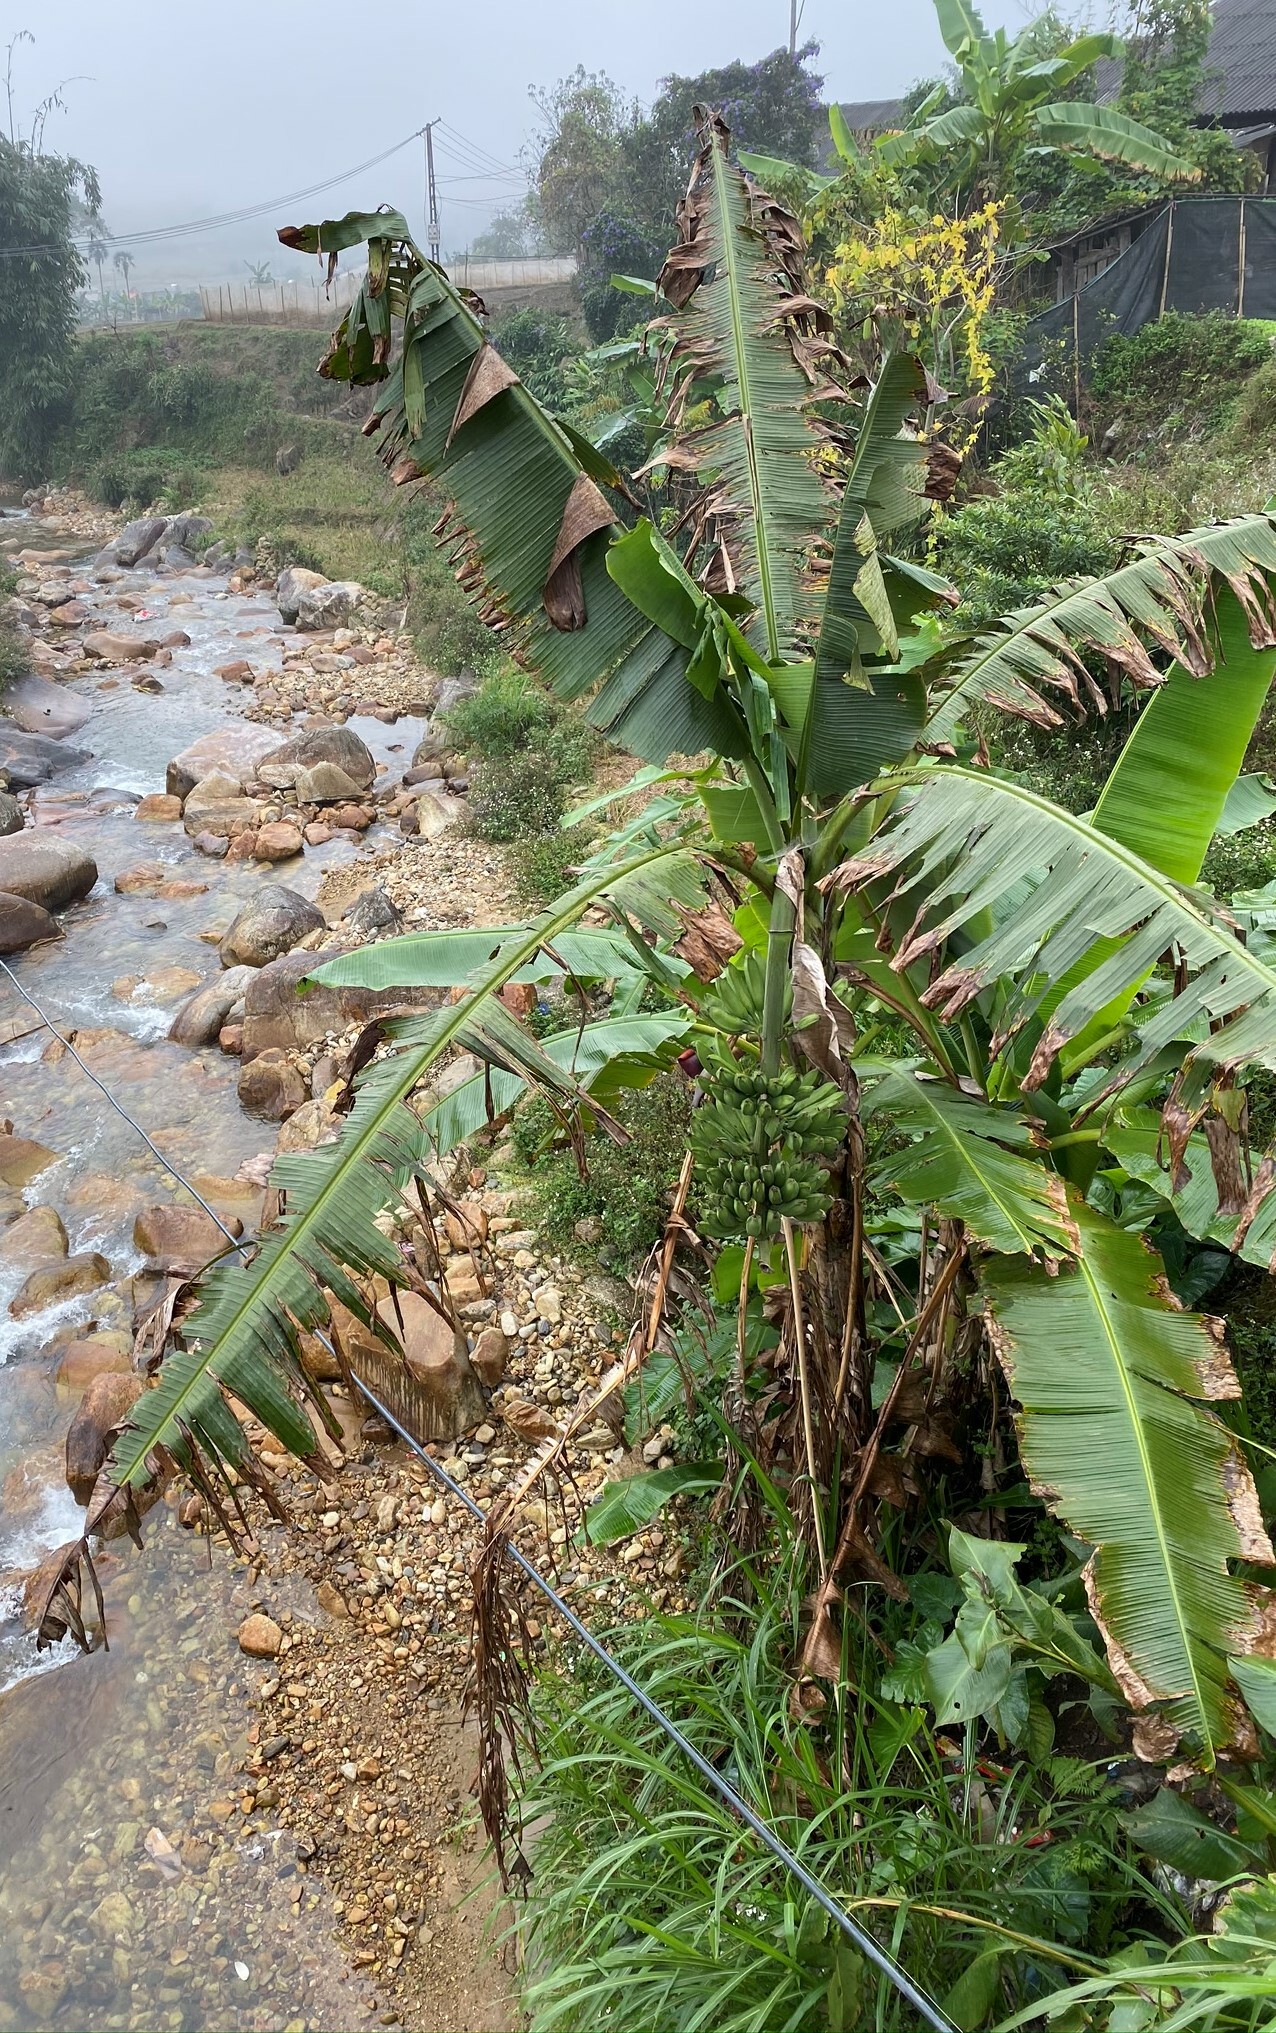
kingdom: Plantae
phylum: Tracheophyta
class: Liliopsida
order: Zingiberales
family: Musaceae
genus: Musa
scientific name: Musa paradisiaca
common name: French plantain
